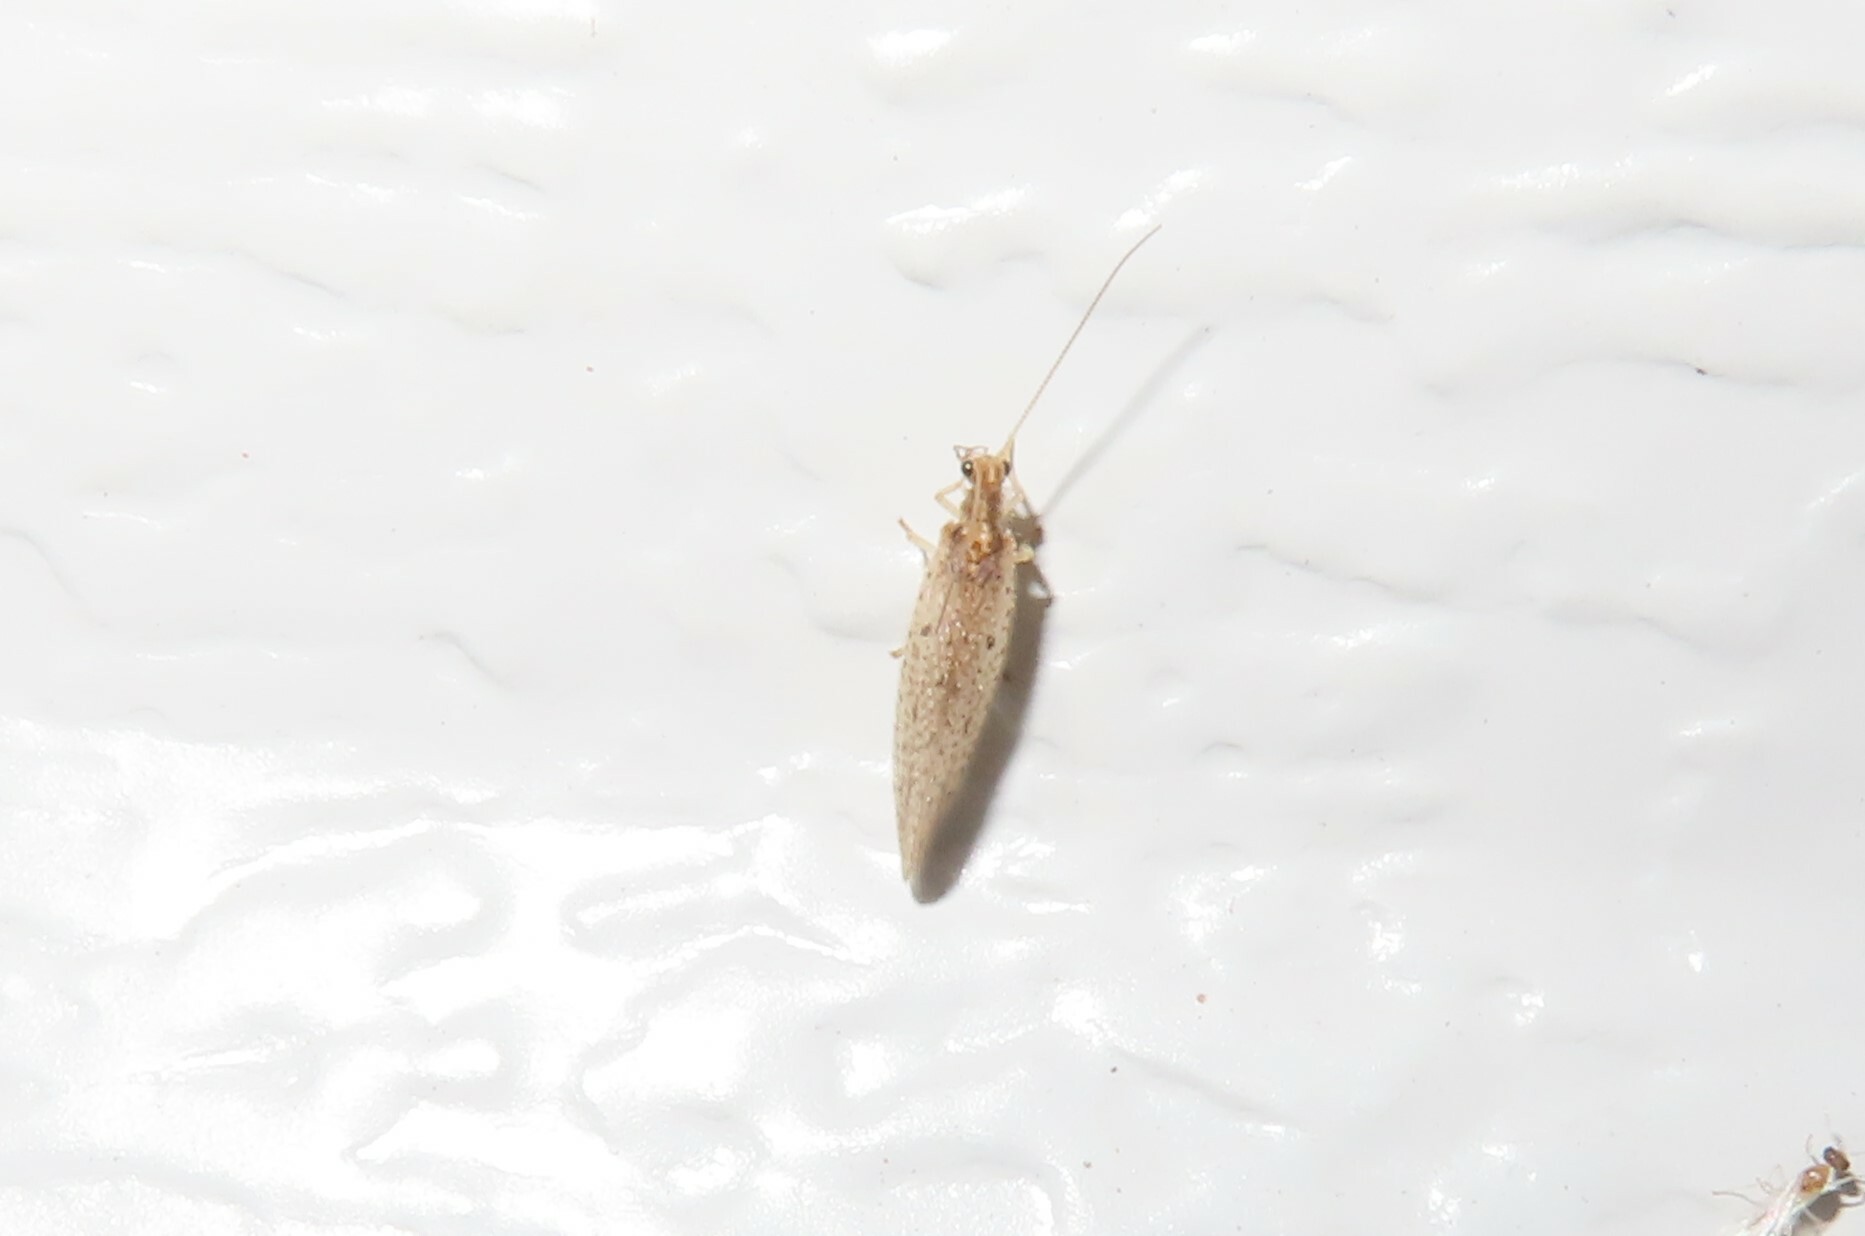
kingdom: Animalia
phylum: Arthropoda
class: Insecta
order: Neuroptera
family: Hemerobiidae
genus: Micromus
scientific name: Micromus subanticus
